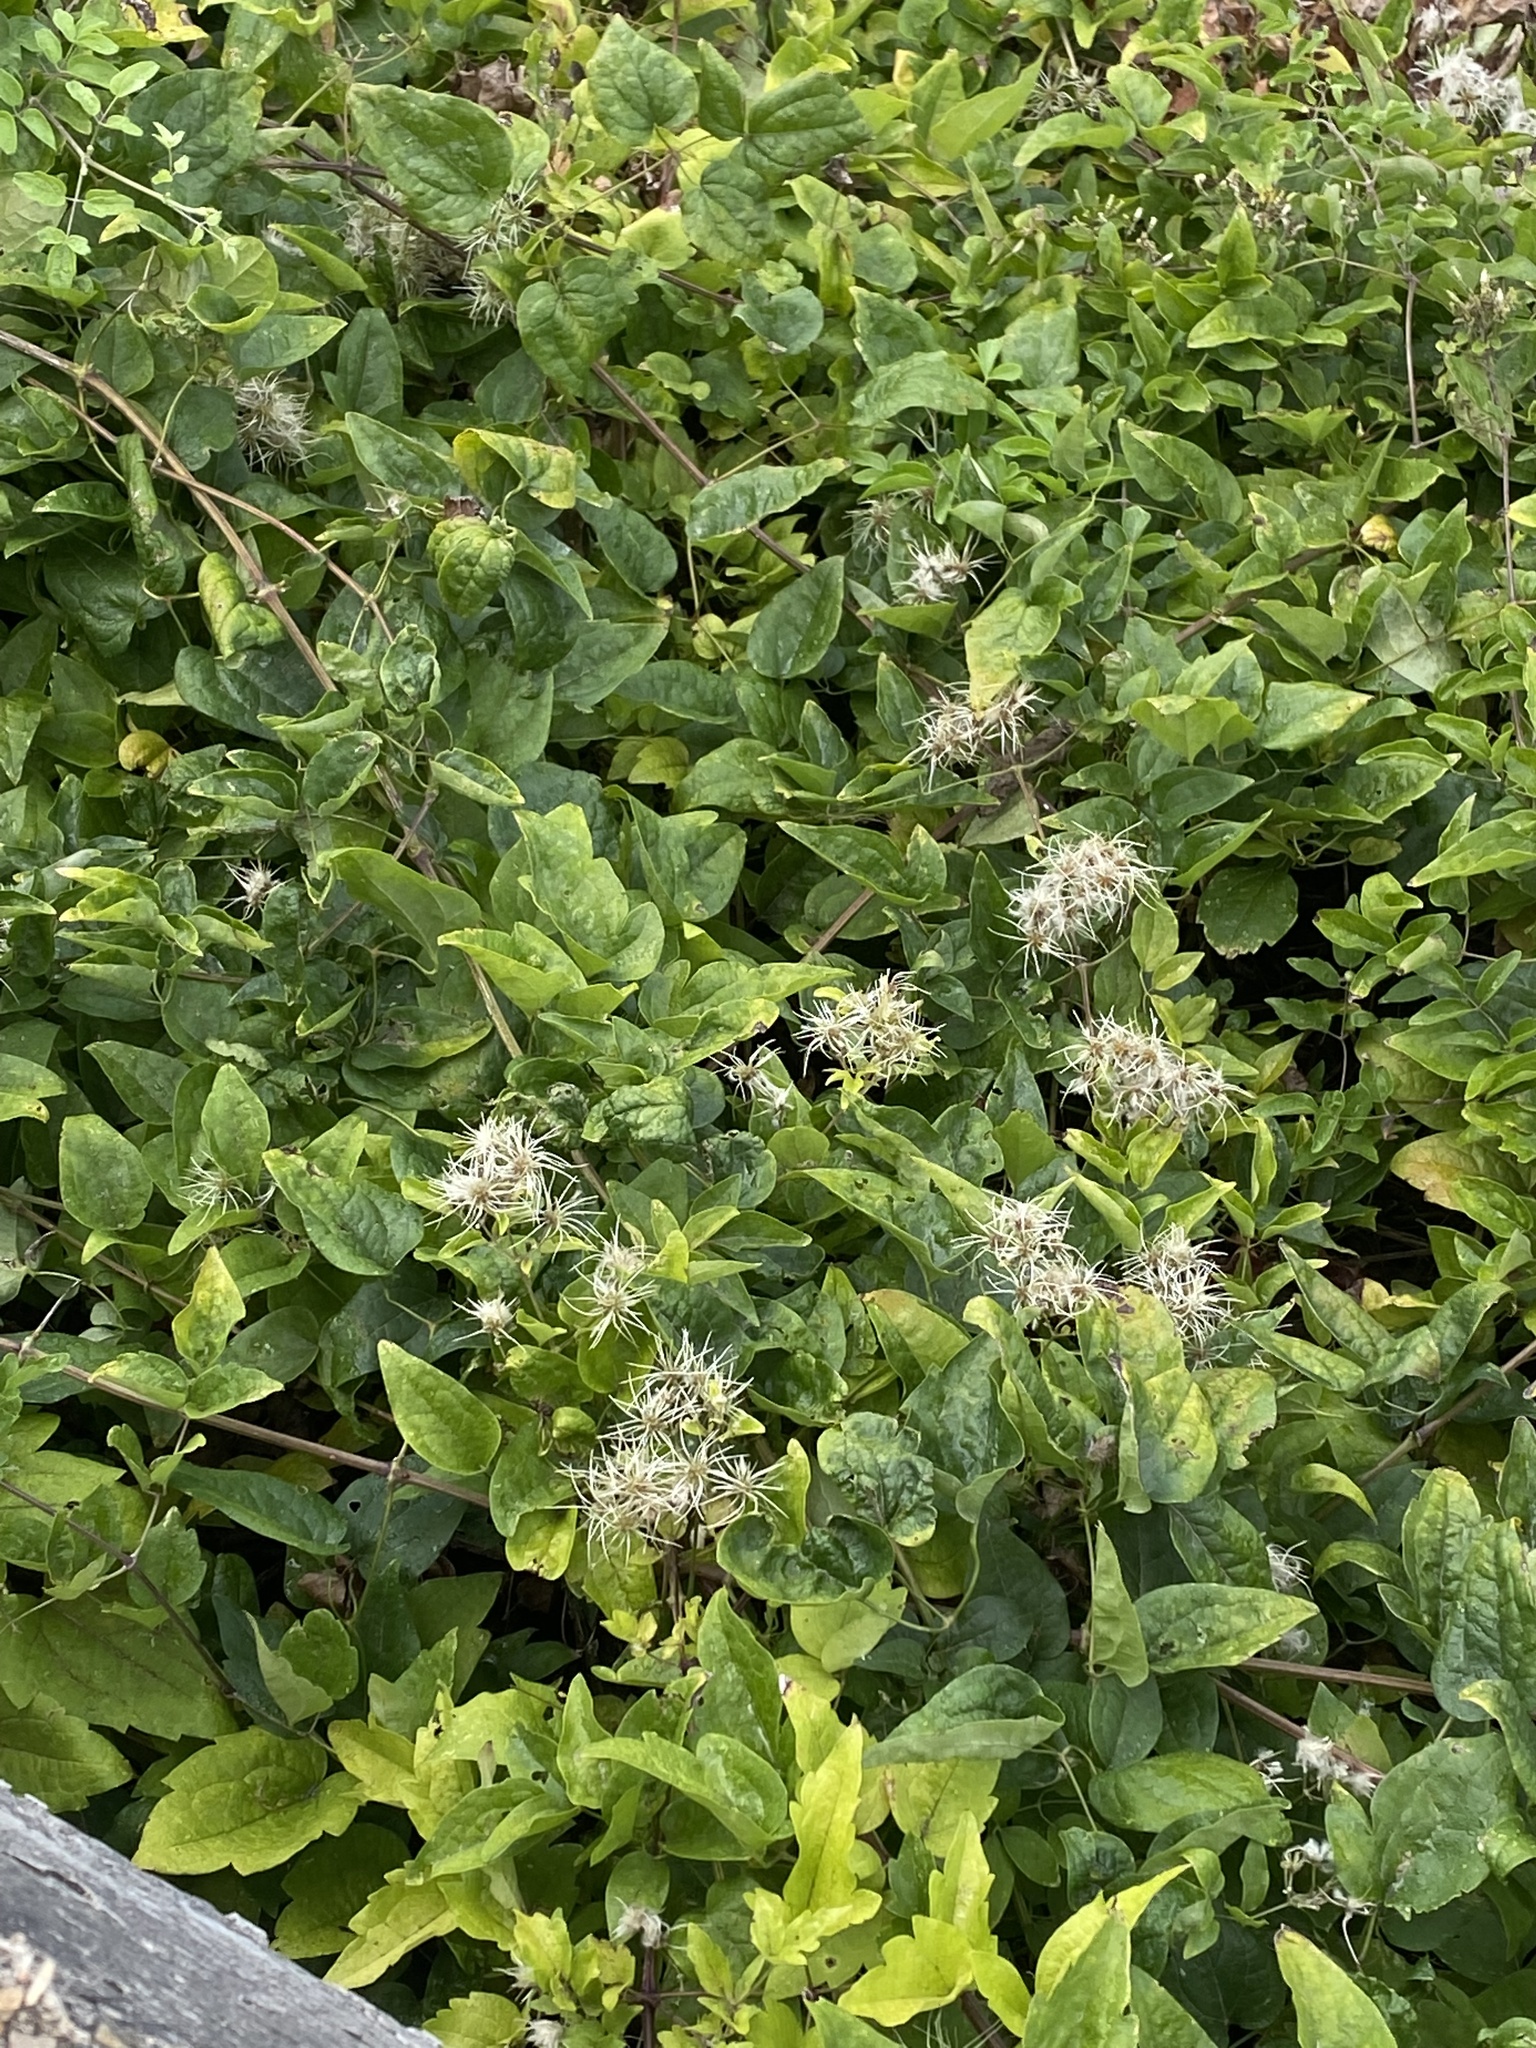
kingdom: Plantae
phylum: Tracheophyta
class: Magnoliopsida
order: Ranunculales
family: Ranunculaceae
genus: Clematis
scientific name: Clematis vitalba
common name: Evergreen clematis
